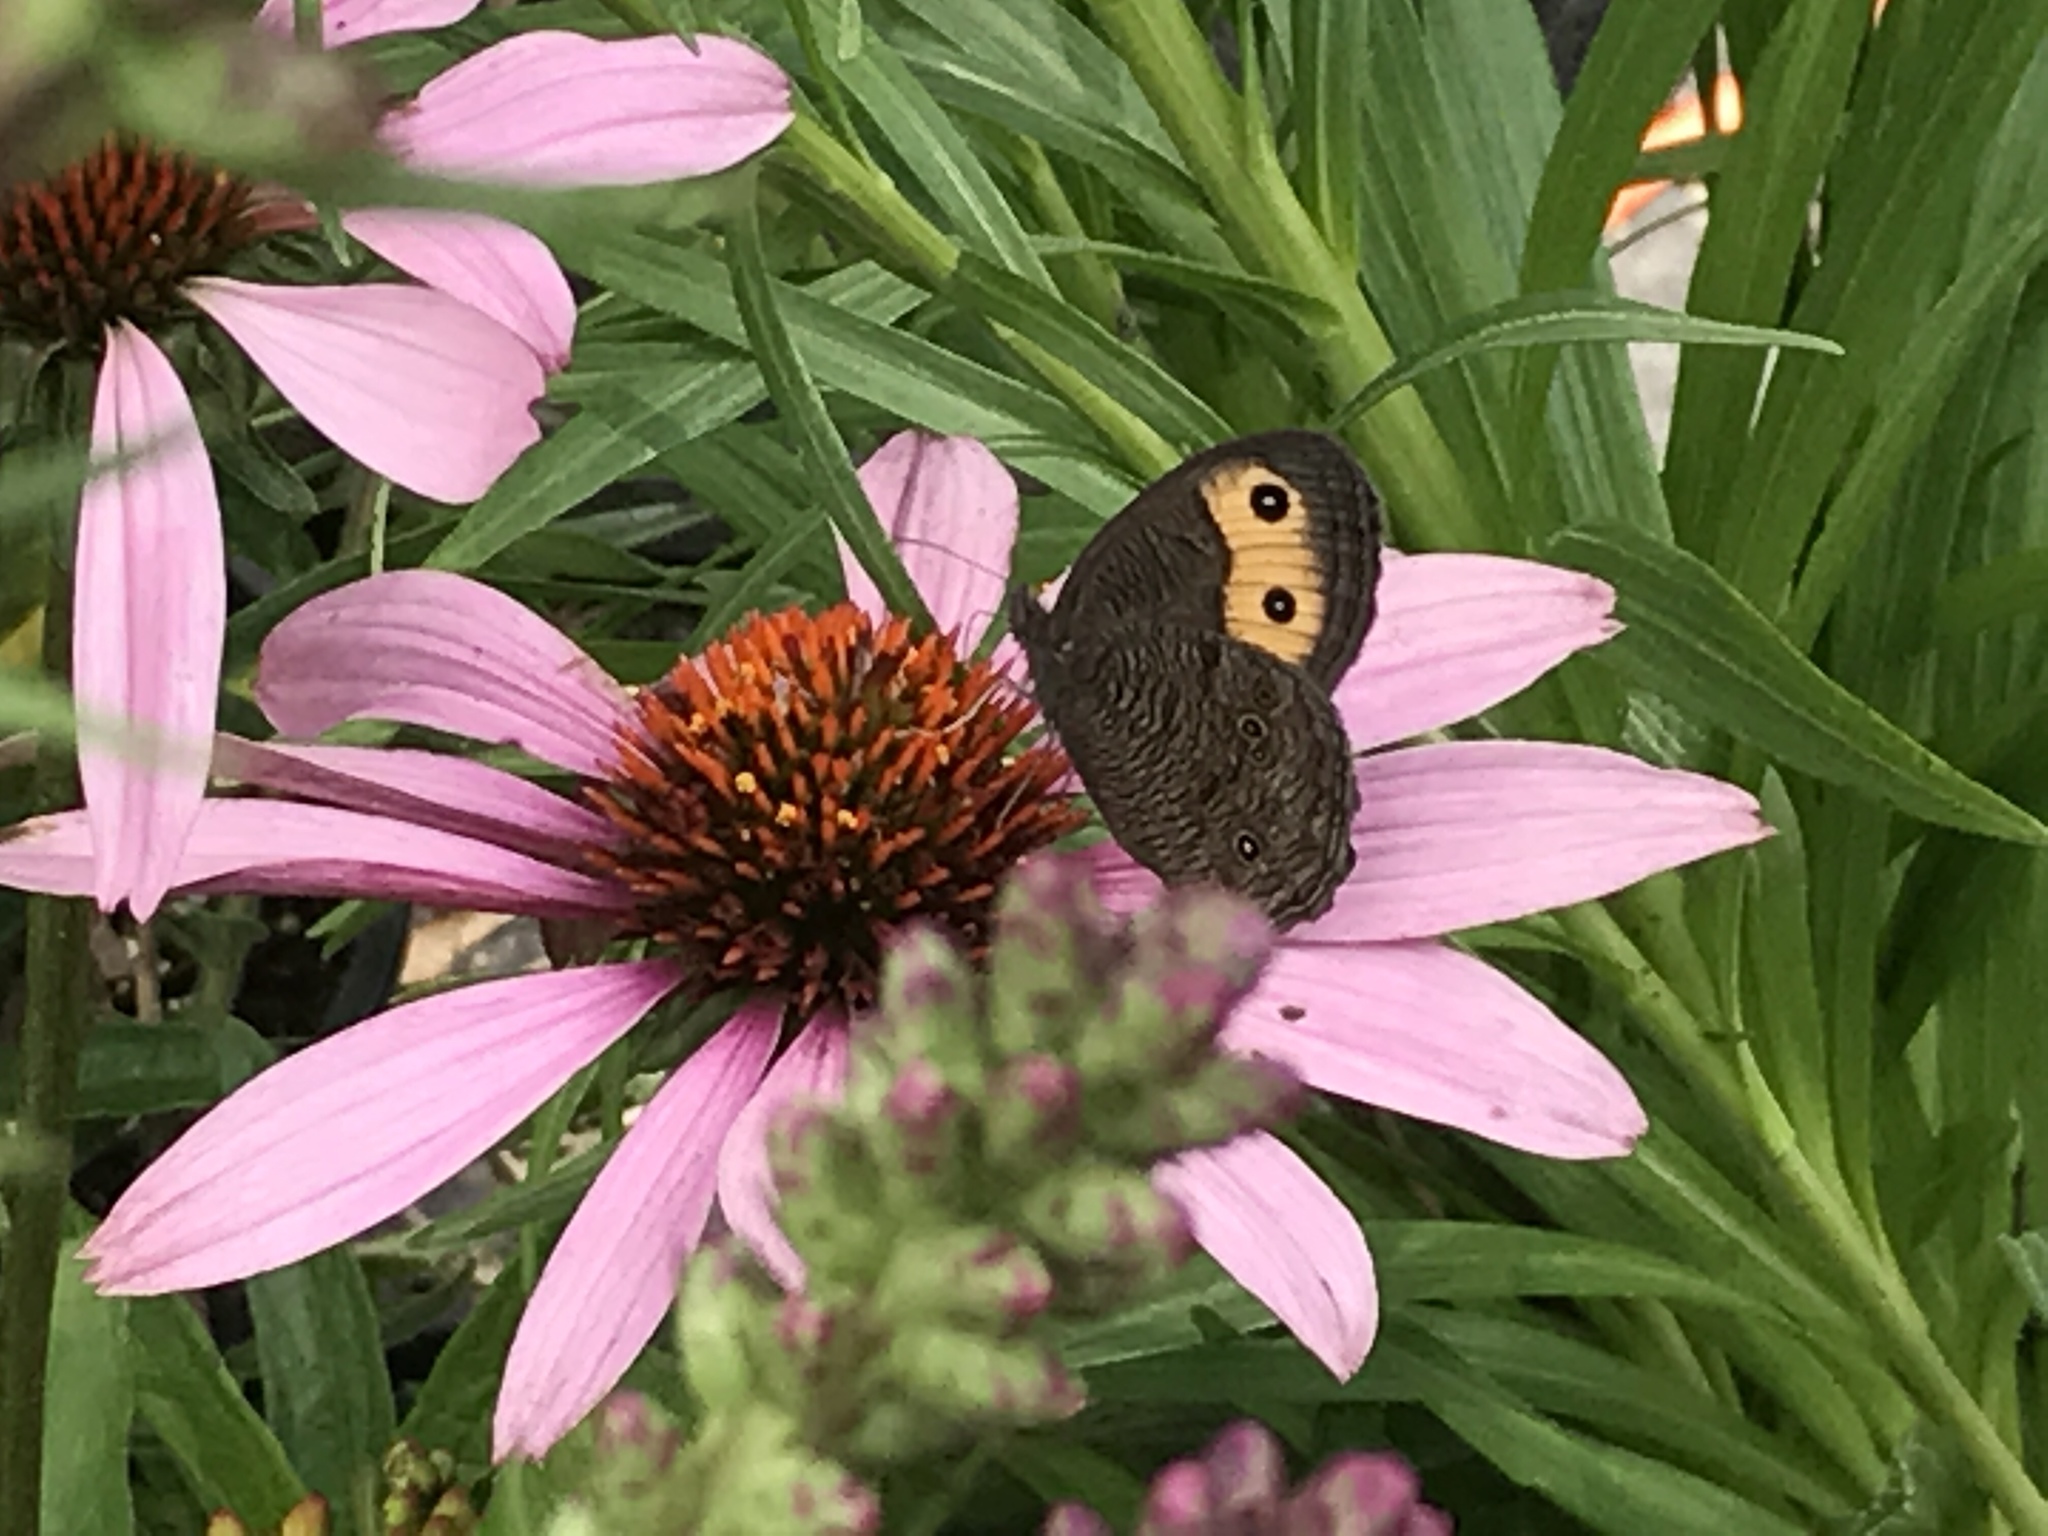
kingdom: Animalia
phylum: Arthropoda
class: Insecta
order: Lepidoptera
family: Nymphalidae
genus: Cercyonis
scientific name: Cercyonis pegala
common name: Common wood-nymph
